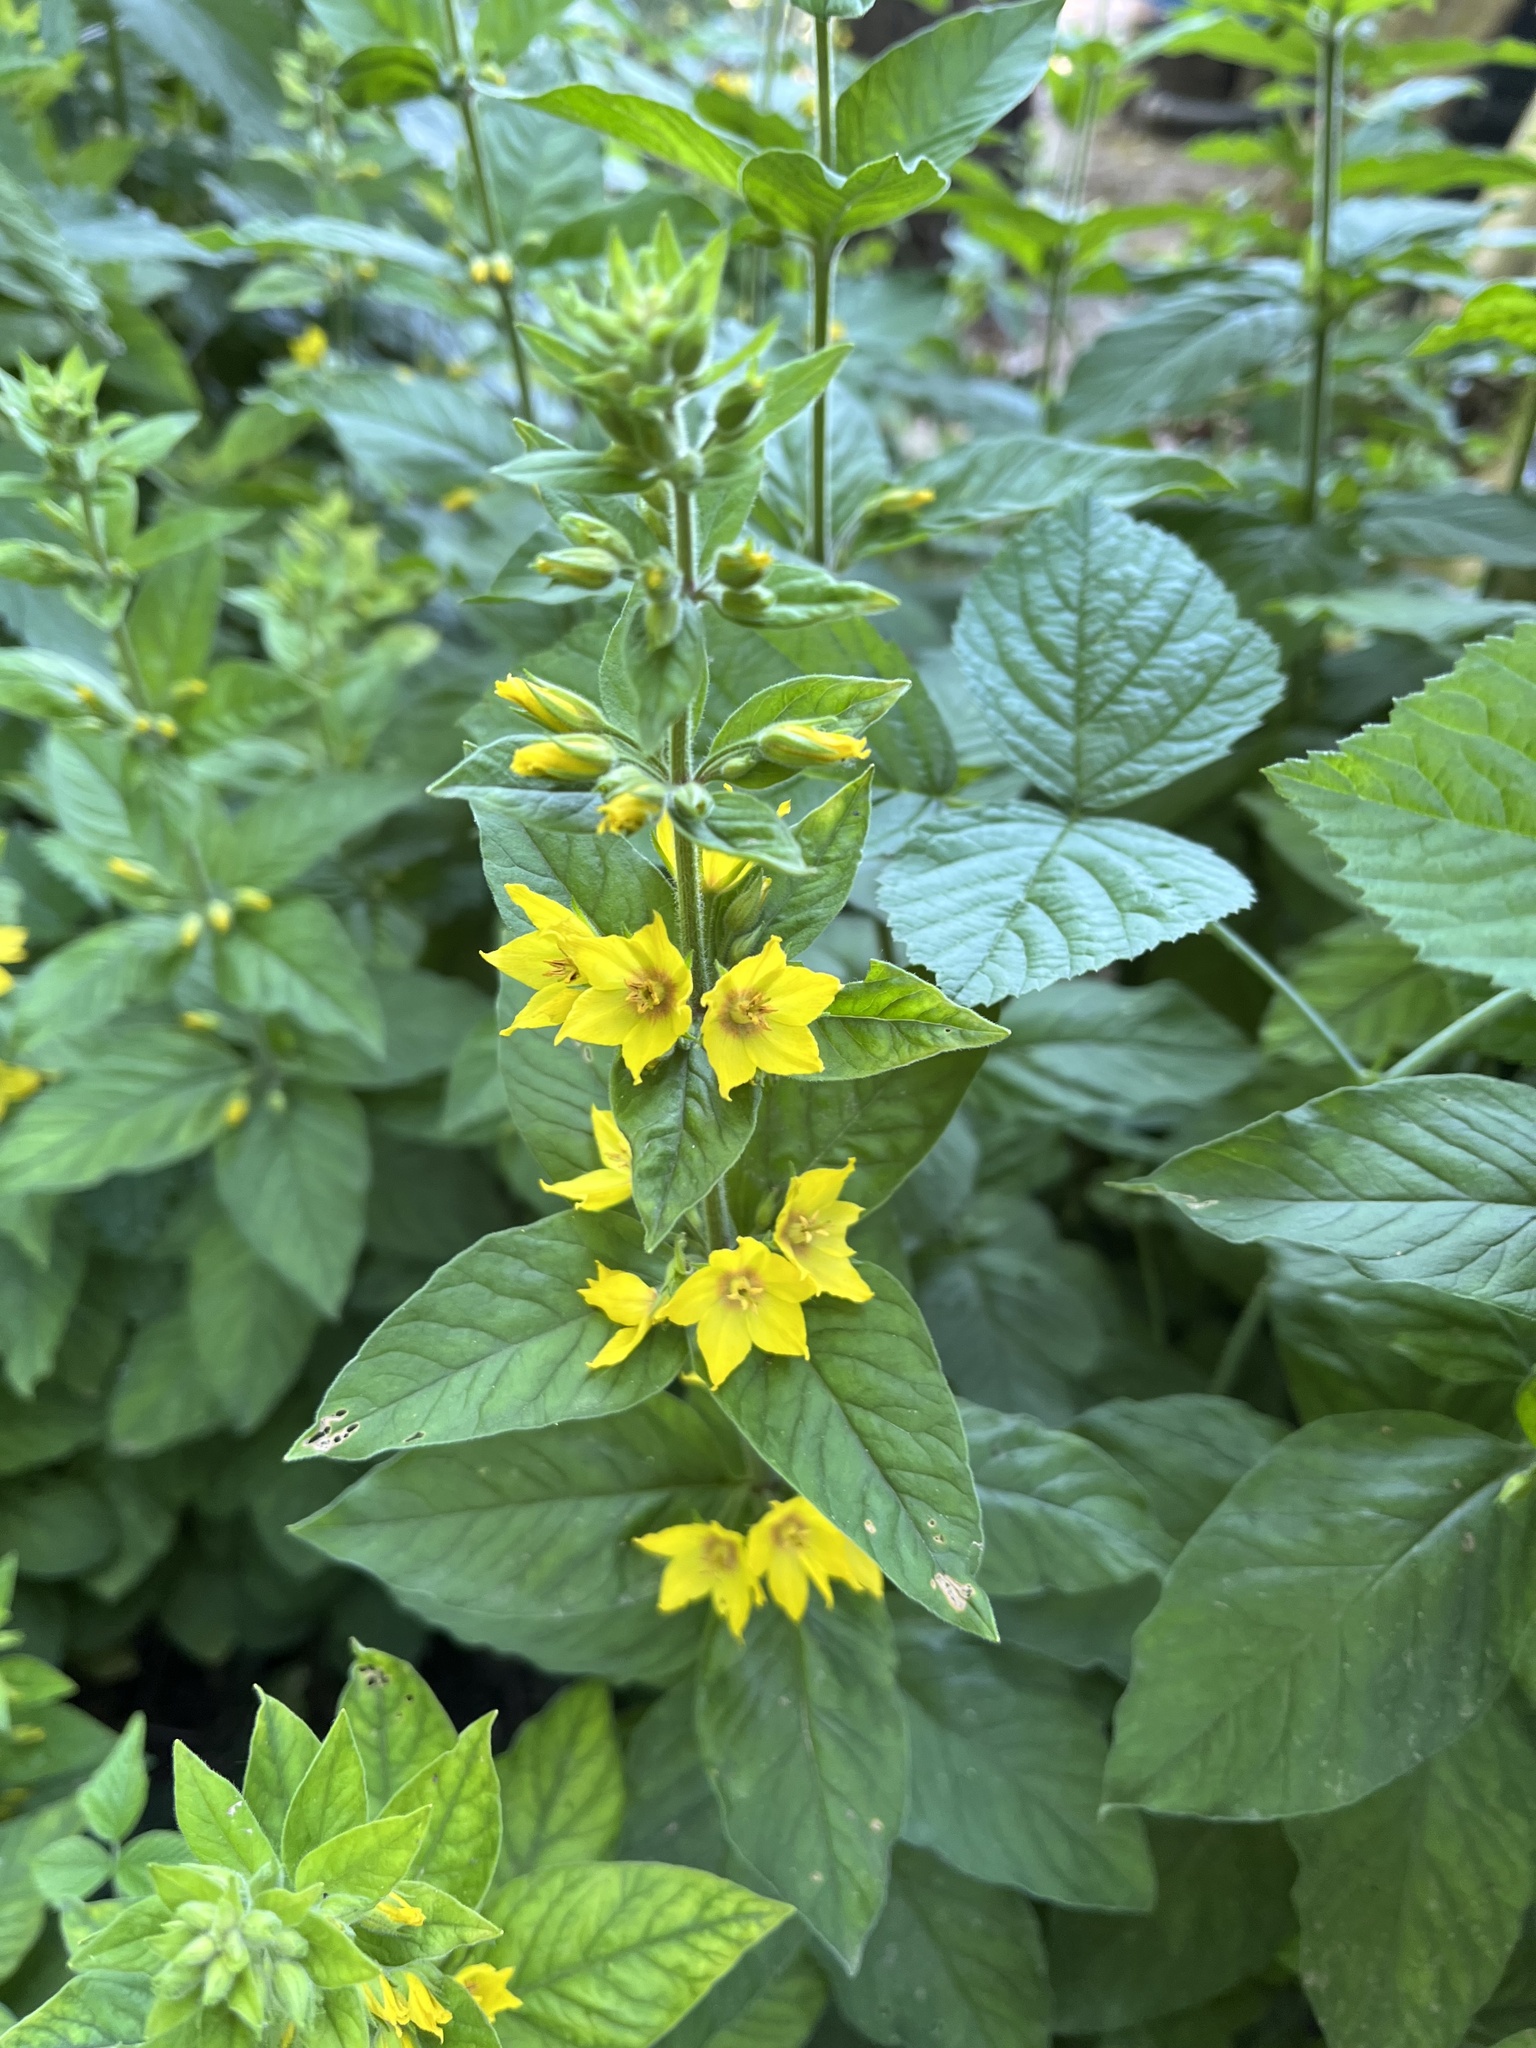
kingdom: Plantae
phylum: Tracheophyta
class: Magnoliopsida
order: Ericales
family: Primulaceae
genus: Lysimachia
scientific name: Lysimachia punctata
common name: Dotted loosestrife
